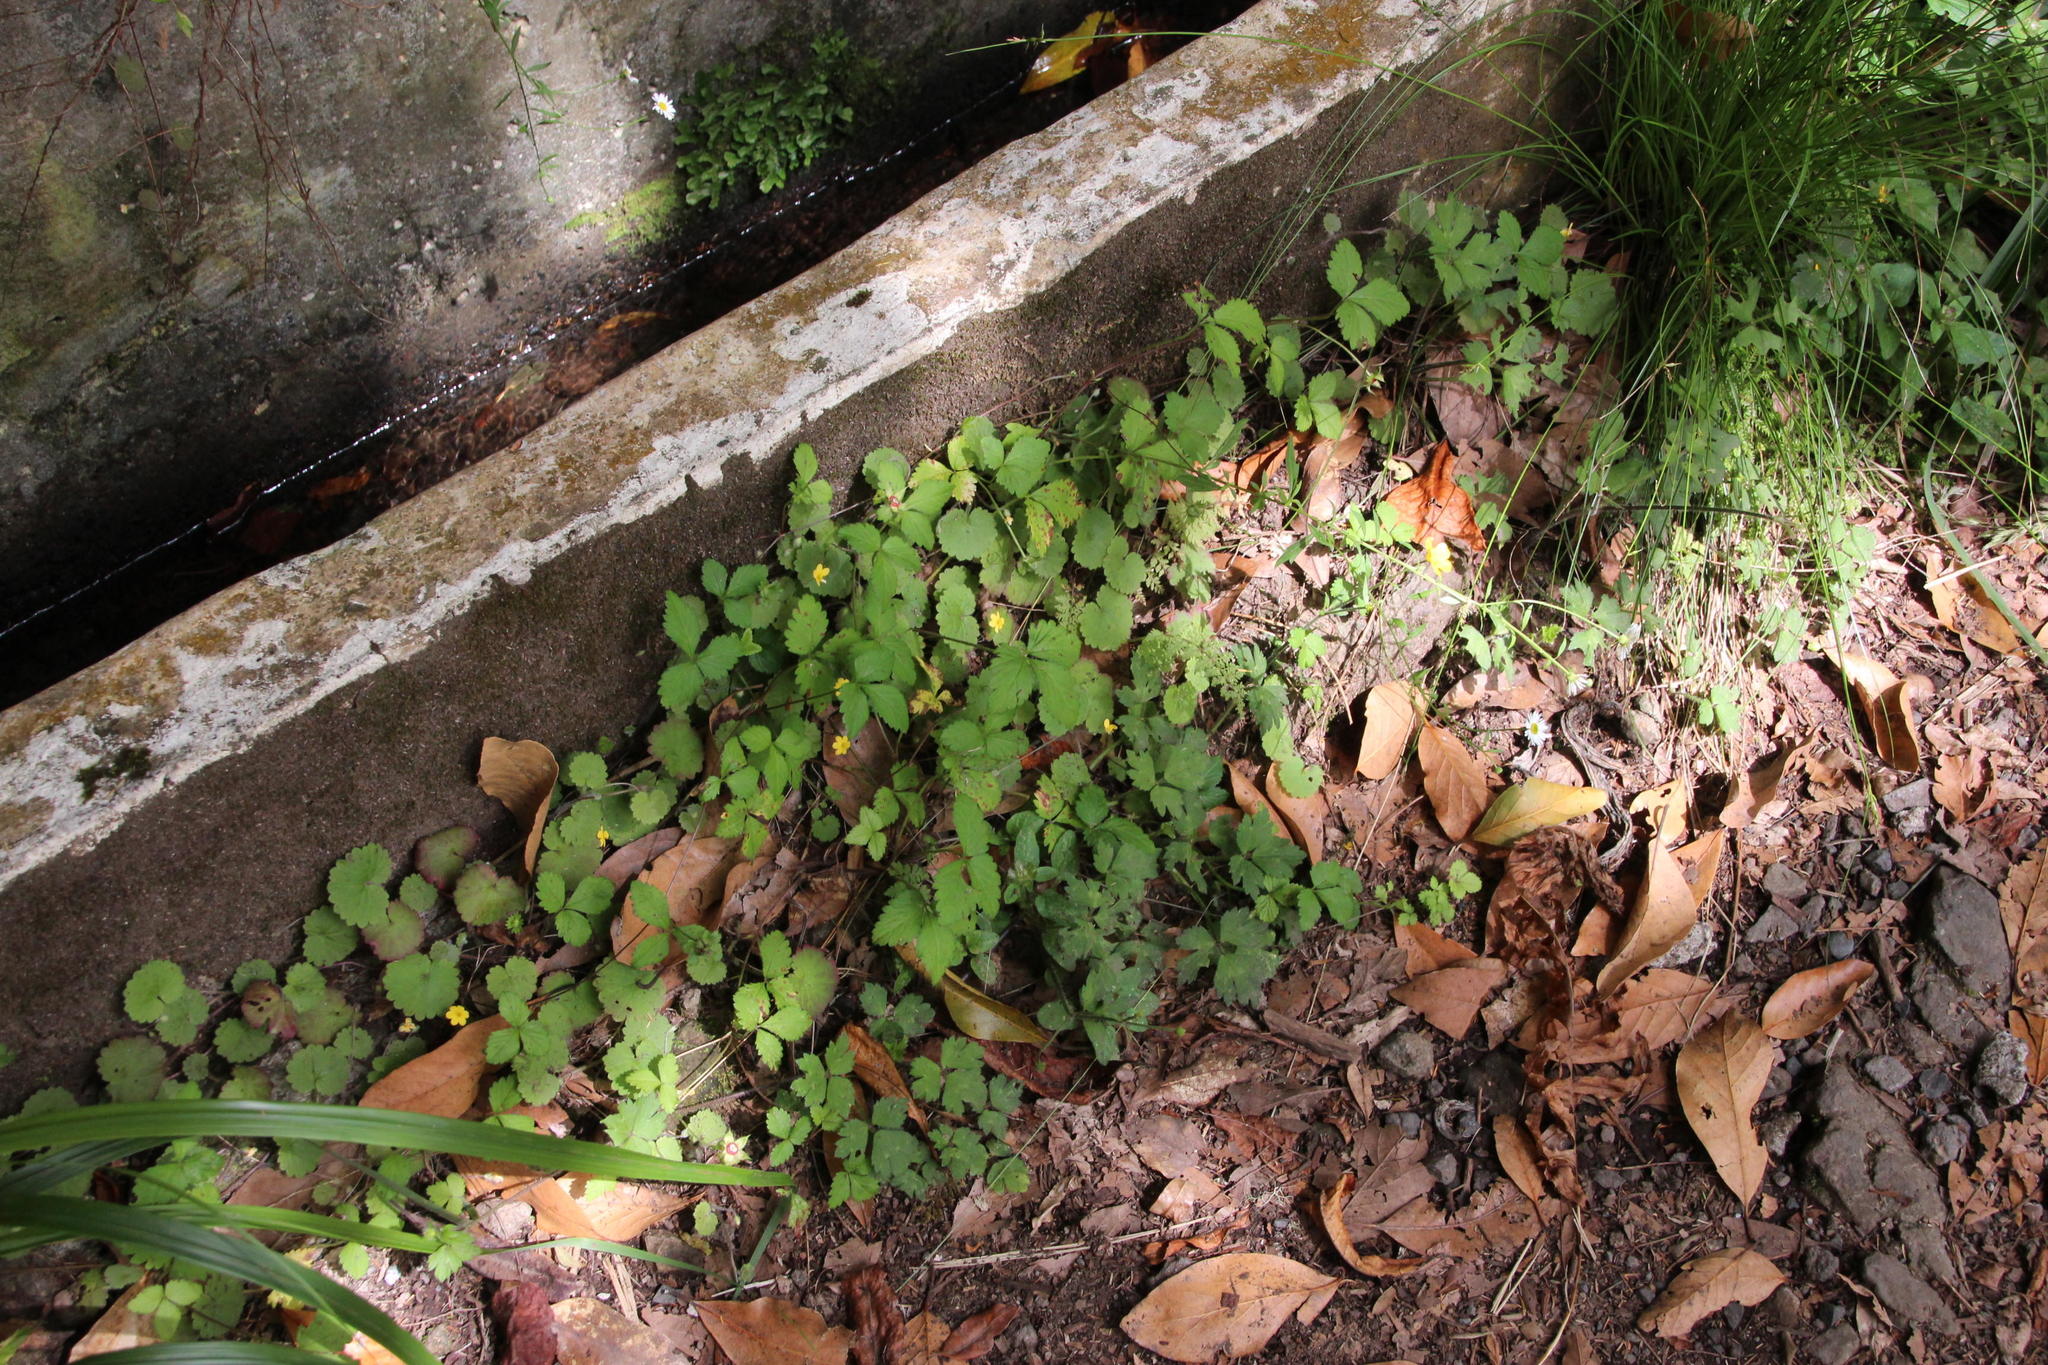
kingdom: Plantae
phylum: Tracheophyta
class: Magnoliopsida
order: Lamiales
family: Plantaginaceae
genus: Sibthorpia
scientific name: Sibthorpia peregrina
